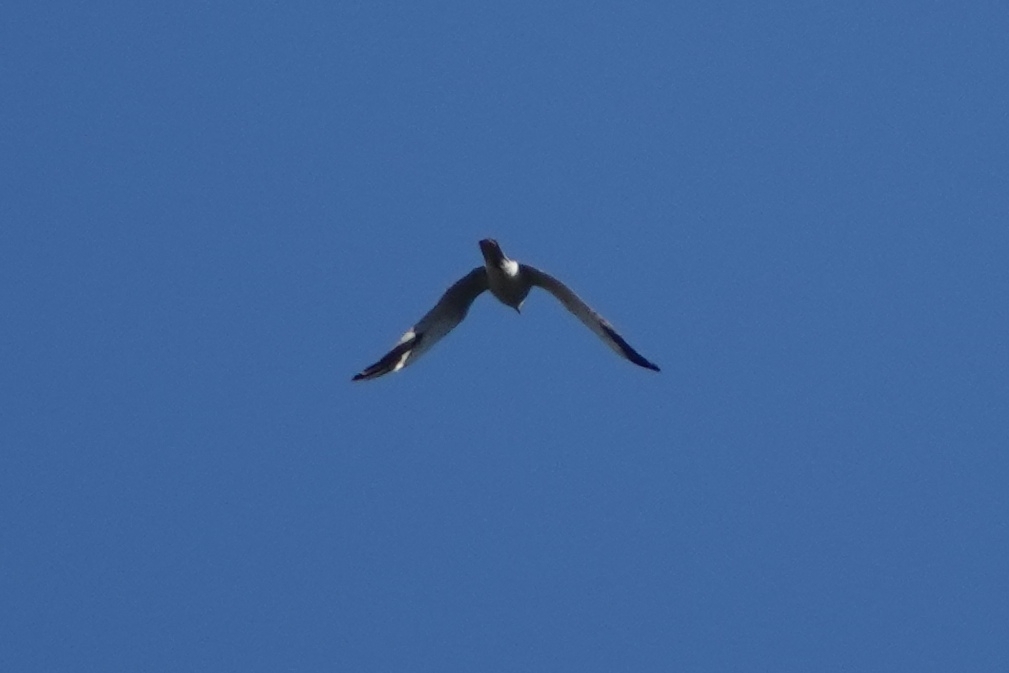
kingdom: Animalia
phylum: Chordata
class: Aves
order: Accipitriformes
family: Accipitridae
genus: Circus
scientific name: Circus macrourus
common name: Pallid harrier
